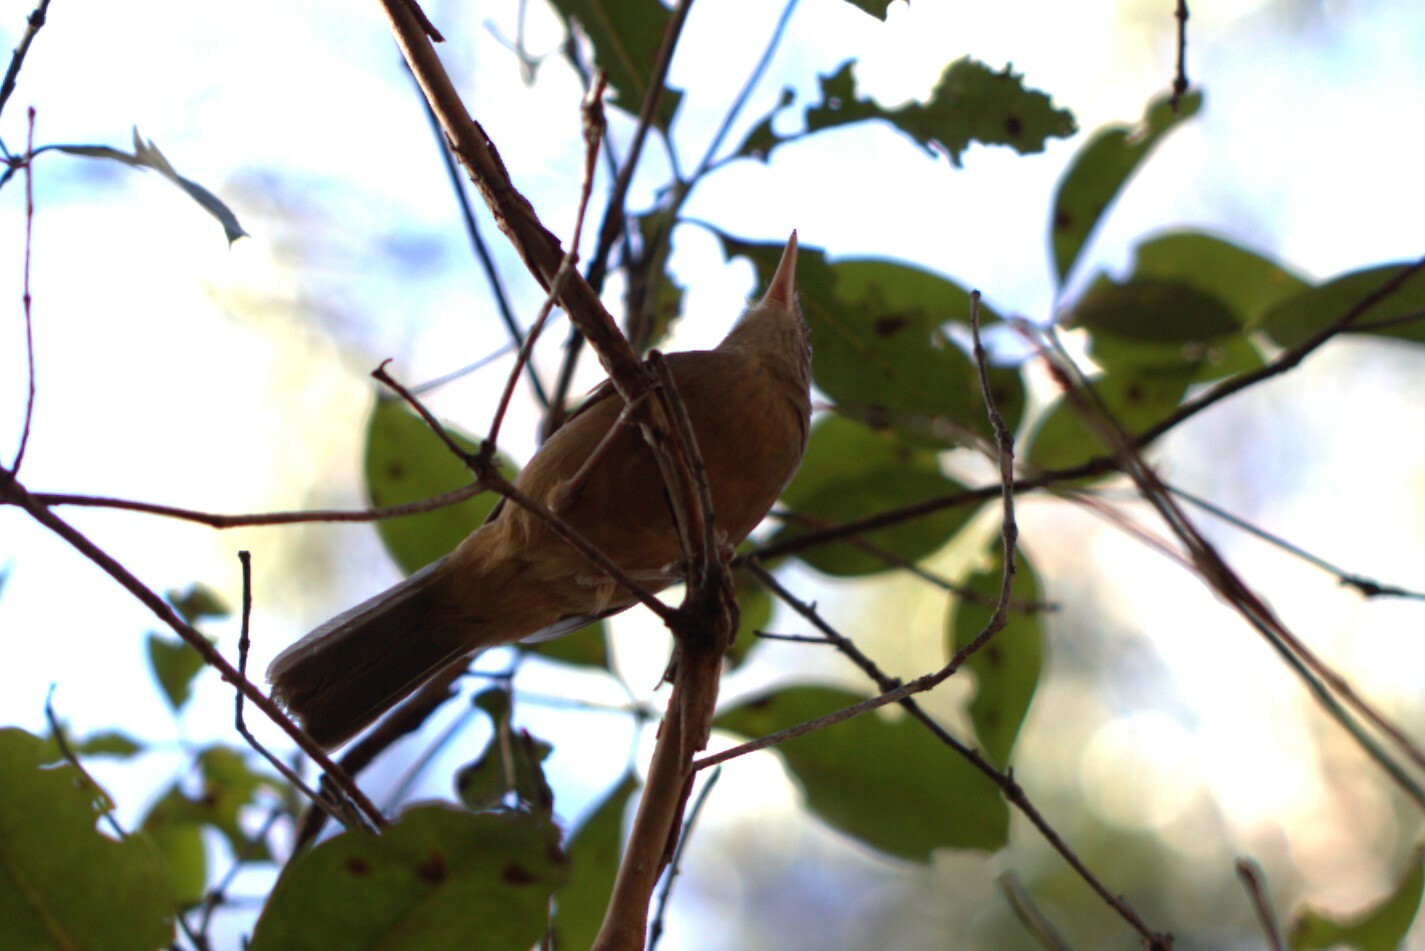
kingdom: Animalia
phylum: Chordata
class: Aves
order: Passeriformes
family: Pachycephalidae
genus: Colluricincla
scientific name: Colluricincla rufogaster
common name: Rufous shrikethrush
